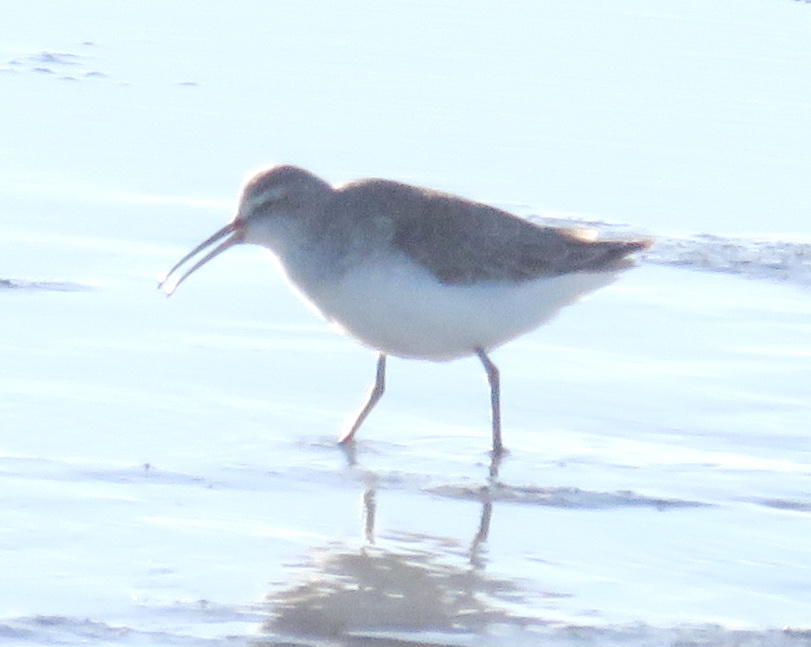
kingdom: Animalia
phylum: Chordata
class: Aves
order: Charadriiformes
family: Scolopacidae
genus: Calidris
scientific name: Calidris ferruginea
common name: Curlew sandpiper
